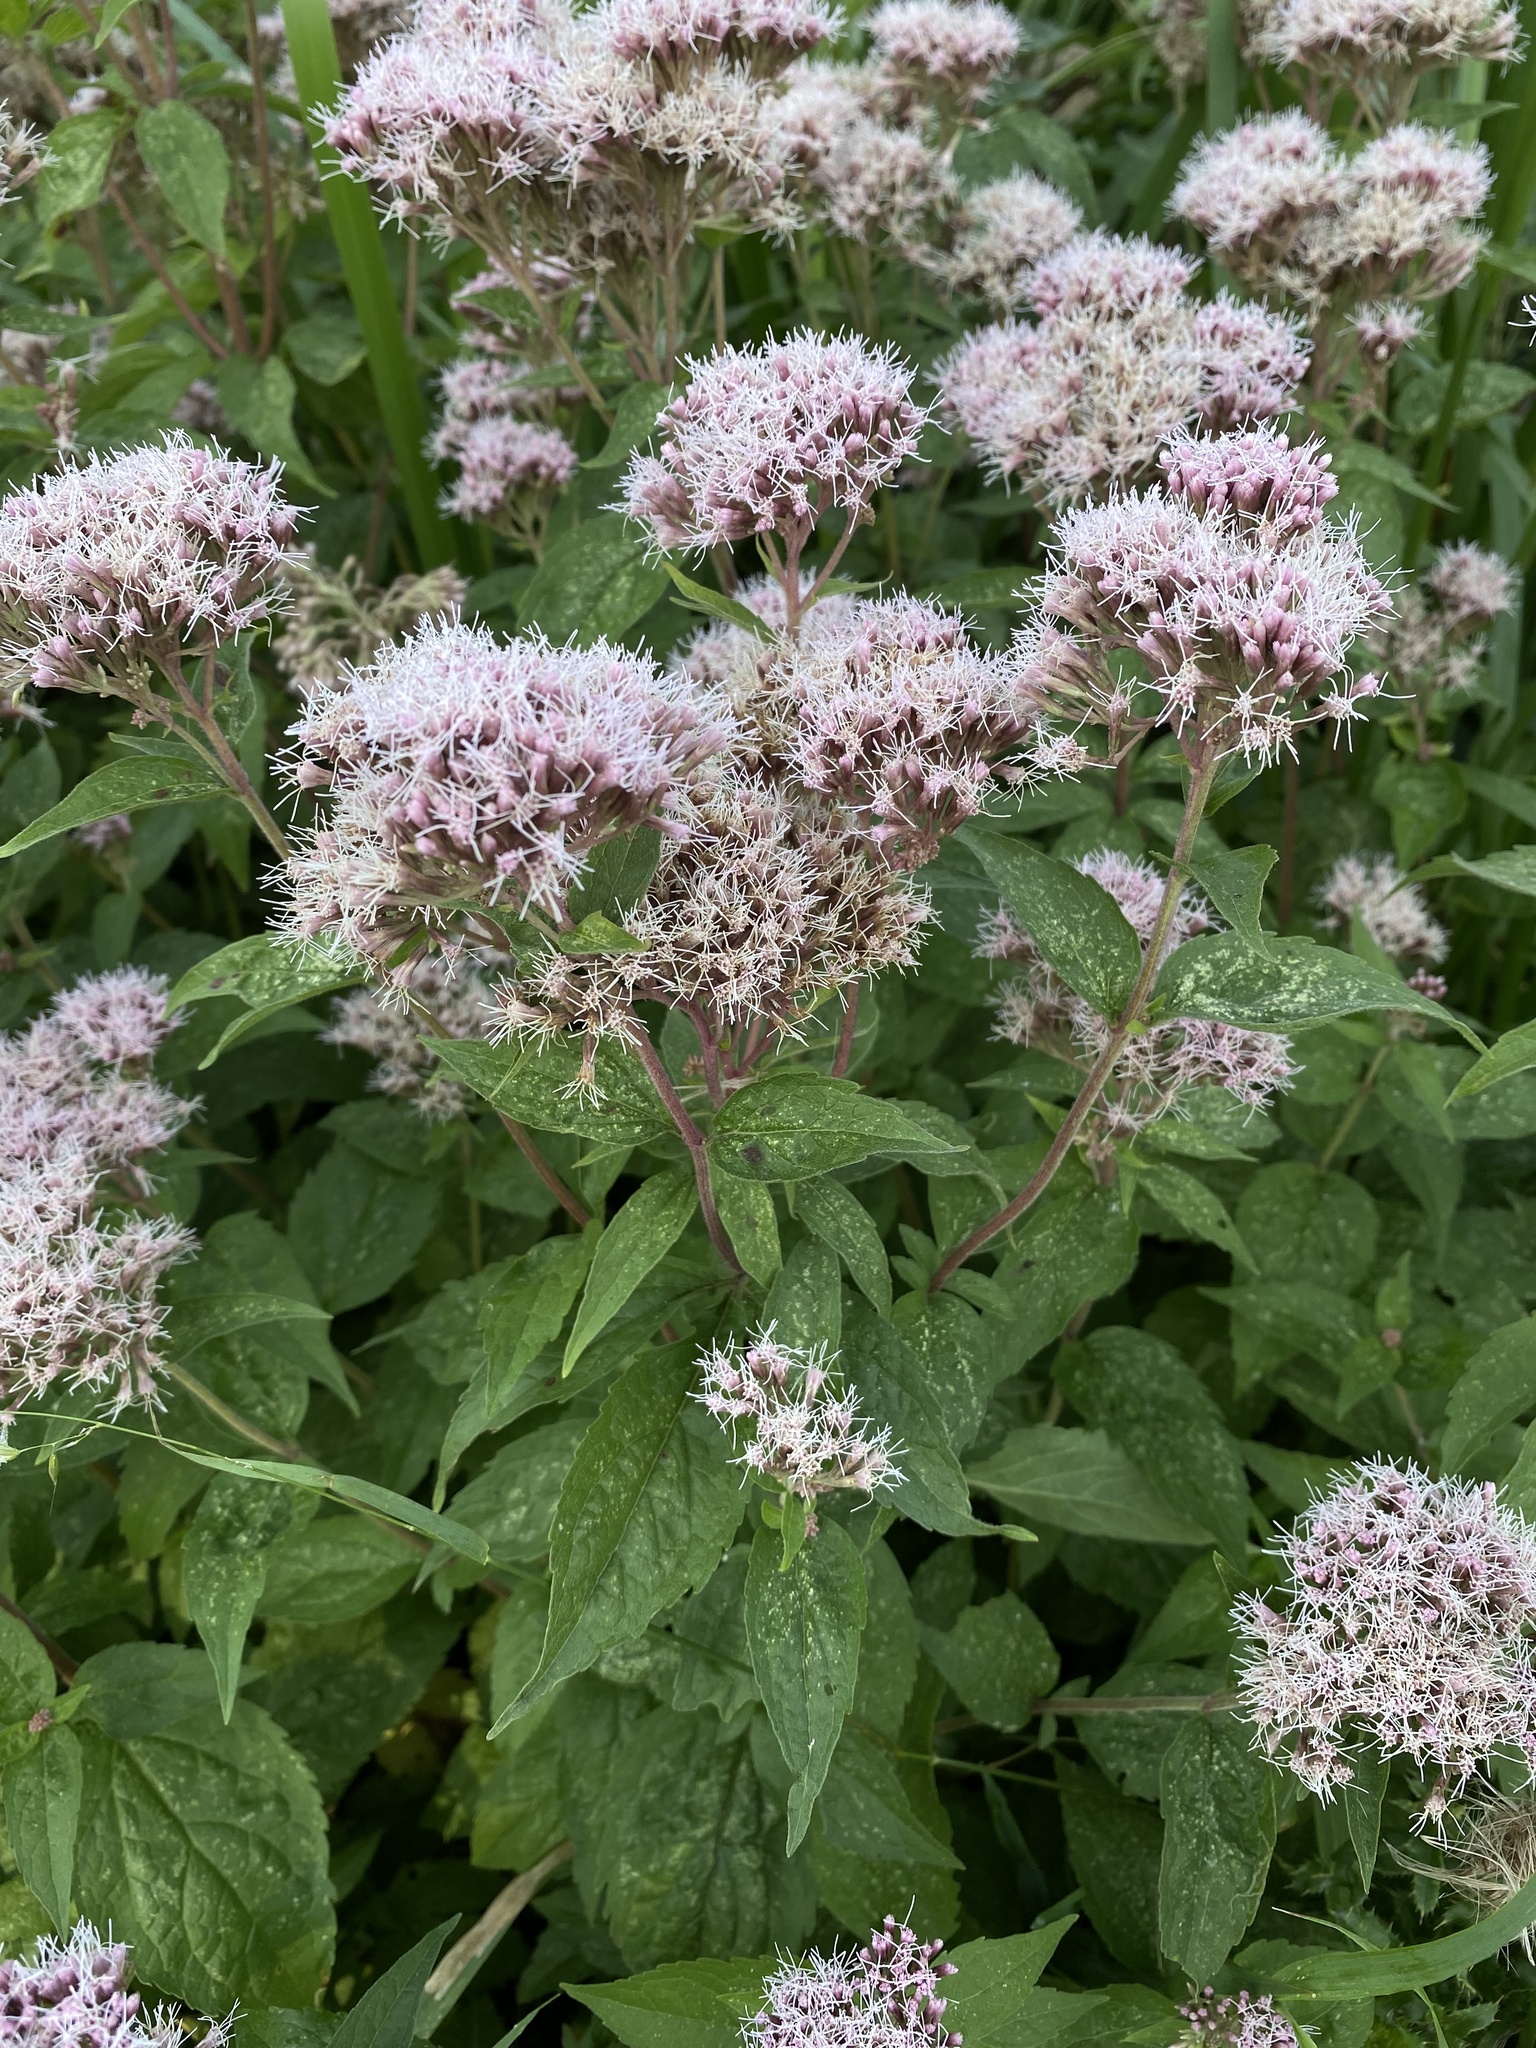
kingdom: Plantae
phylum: Tracheophyta
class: Magnoliopsida
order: Asterales
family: Asteraceae
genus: Eupatorium
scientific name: Eupatorium cannabinum
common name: Hemp-agrimony
